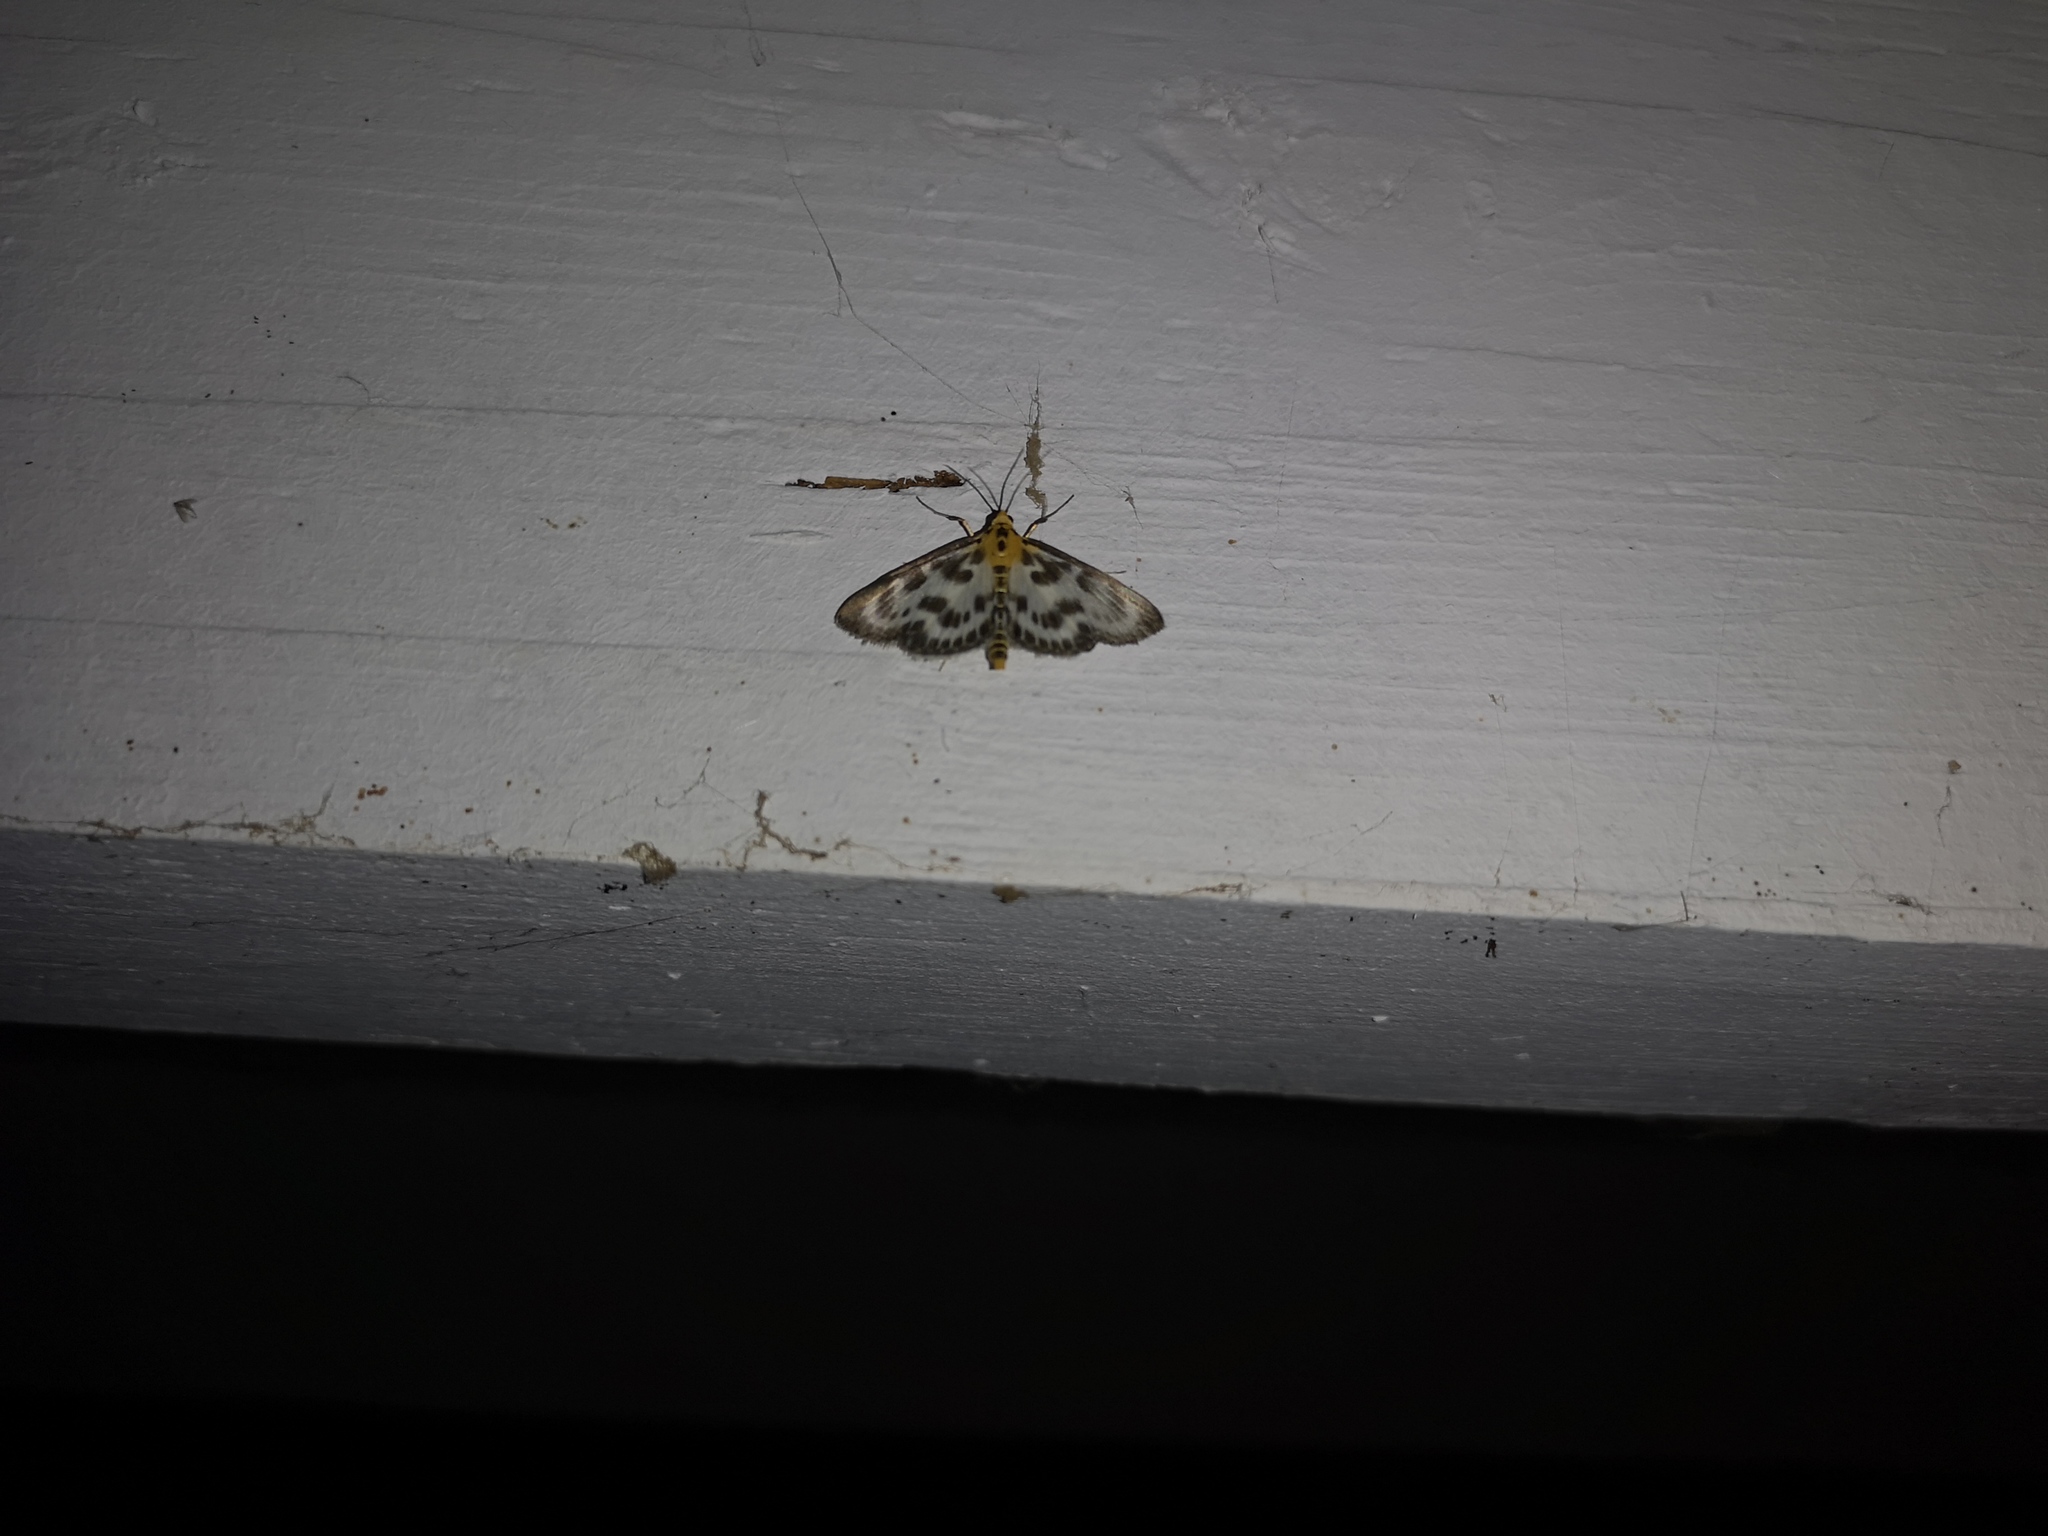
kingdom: Animalia
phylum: Arthropoda
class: Insecta
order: Lepidoptera
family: Crambidae
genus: Anania
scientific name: Anania hortulata
